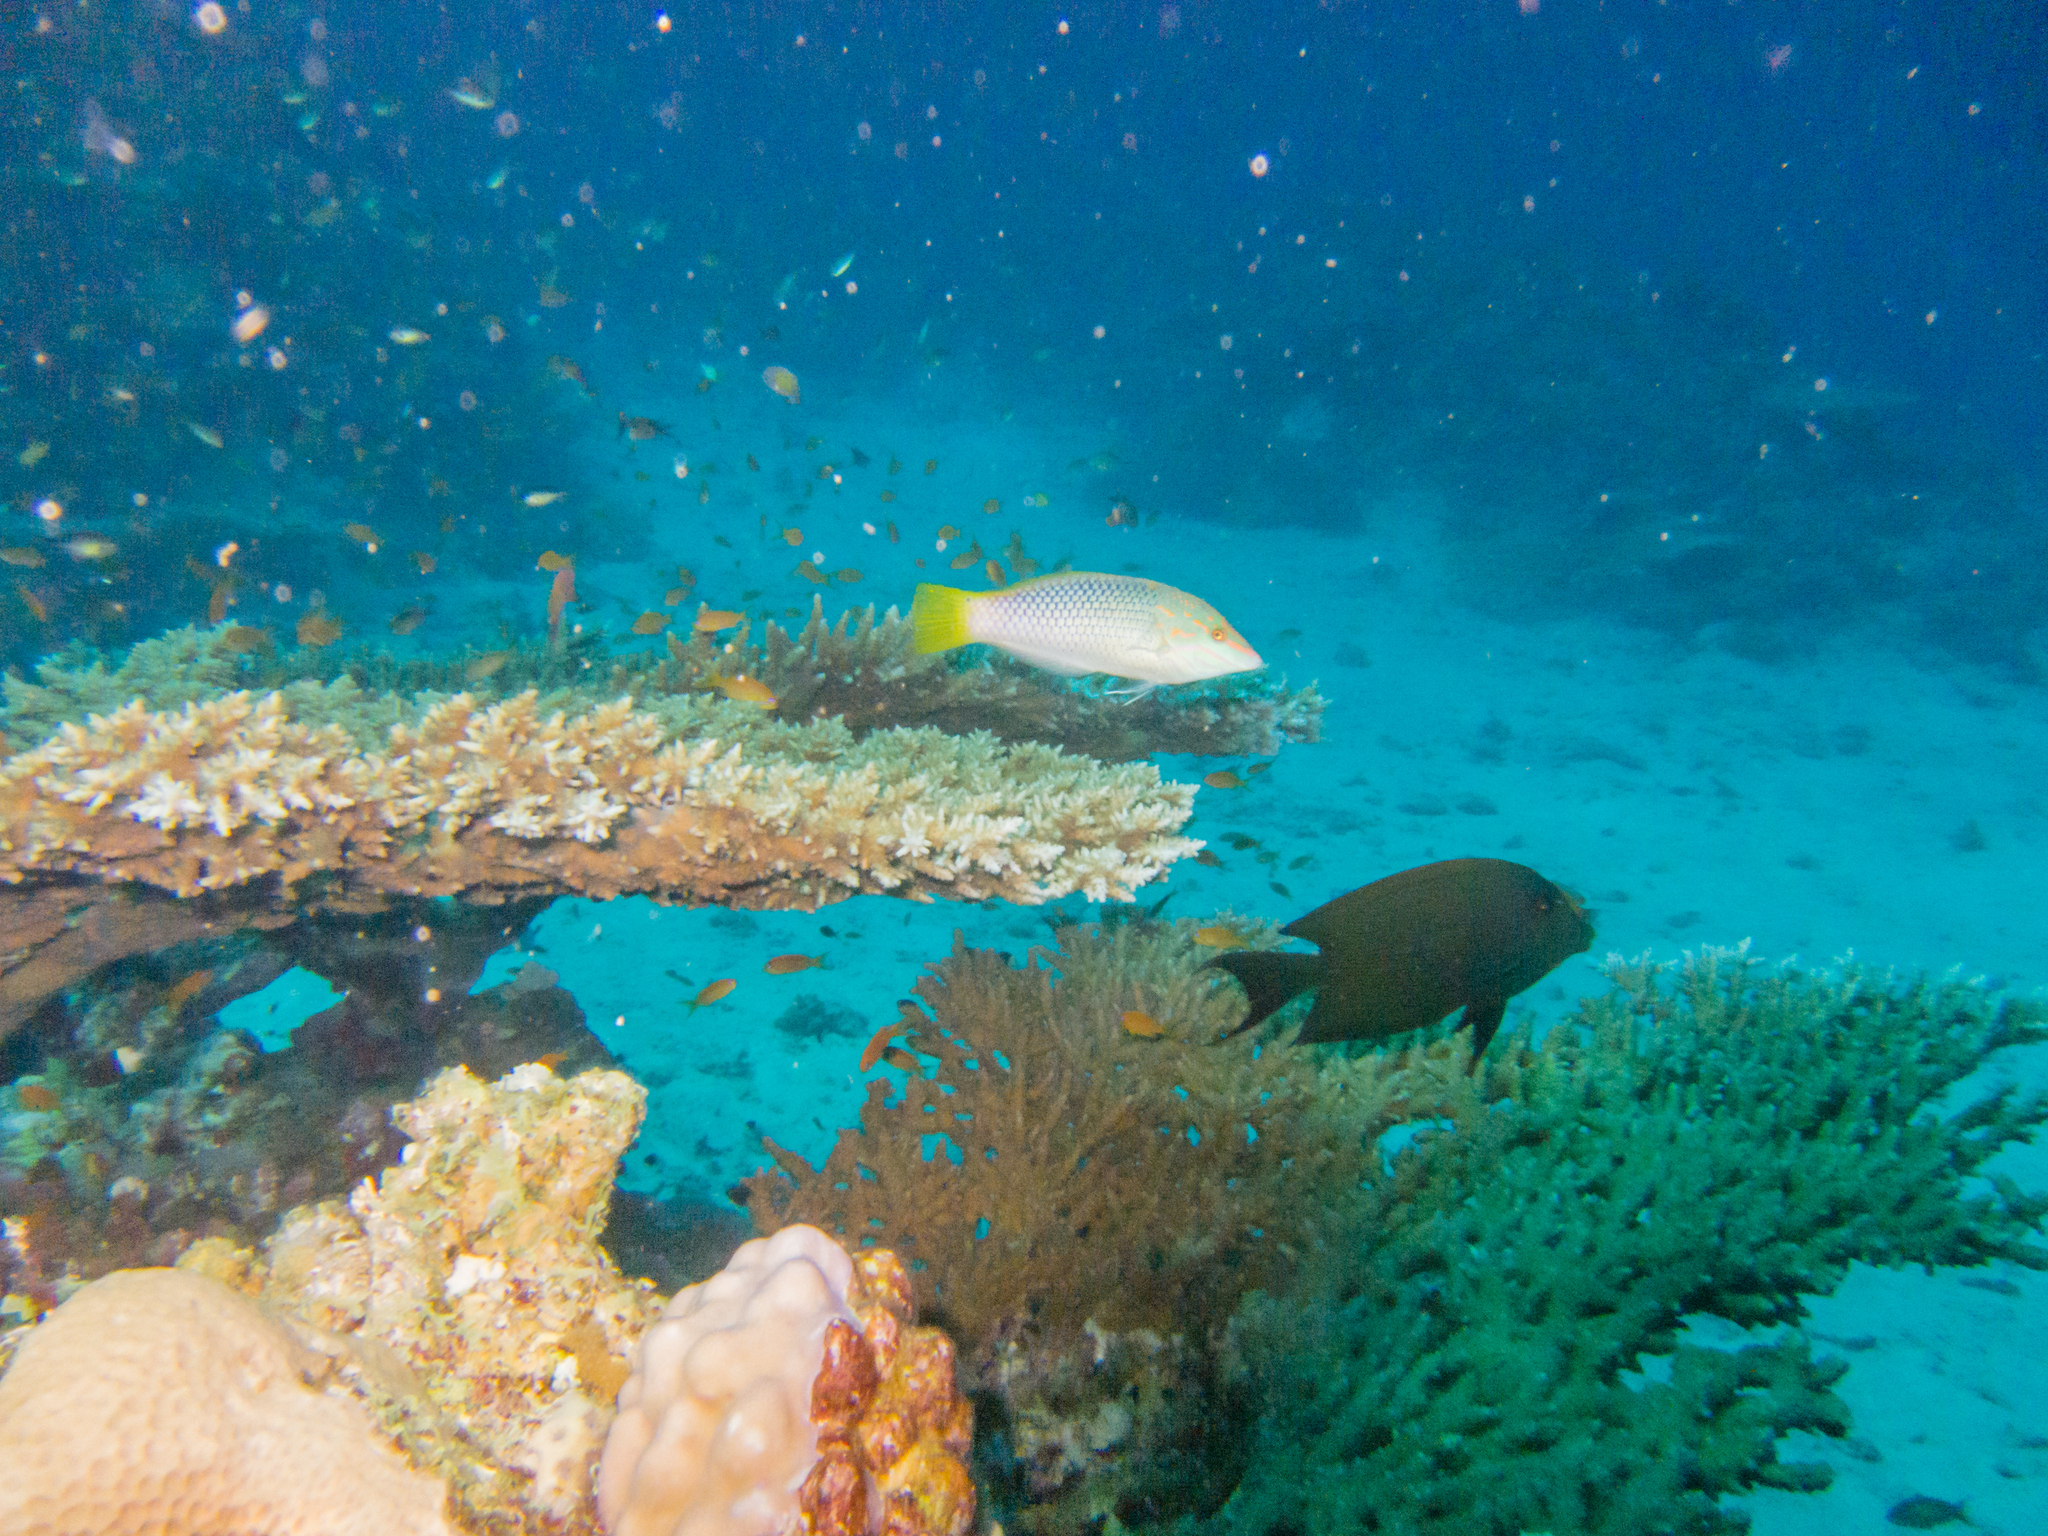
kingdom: Animalia
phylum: Chordata
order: Perciformes
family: Acanthuridae
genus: Ctenochaetus
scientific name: Ctenochaetus striatus
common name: Bristle-toothed surgeonfish
